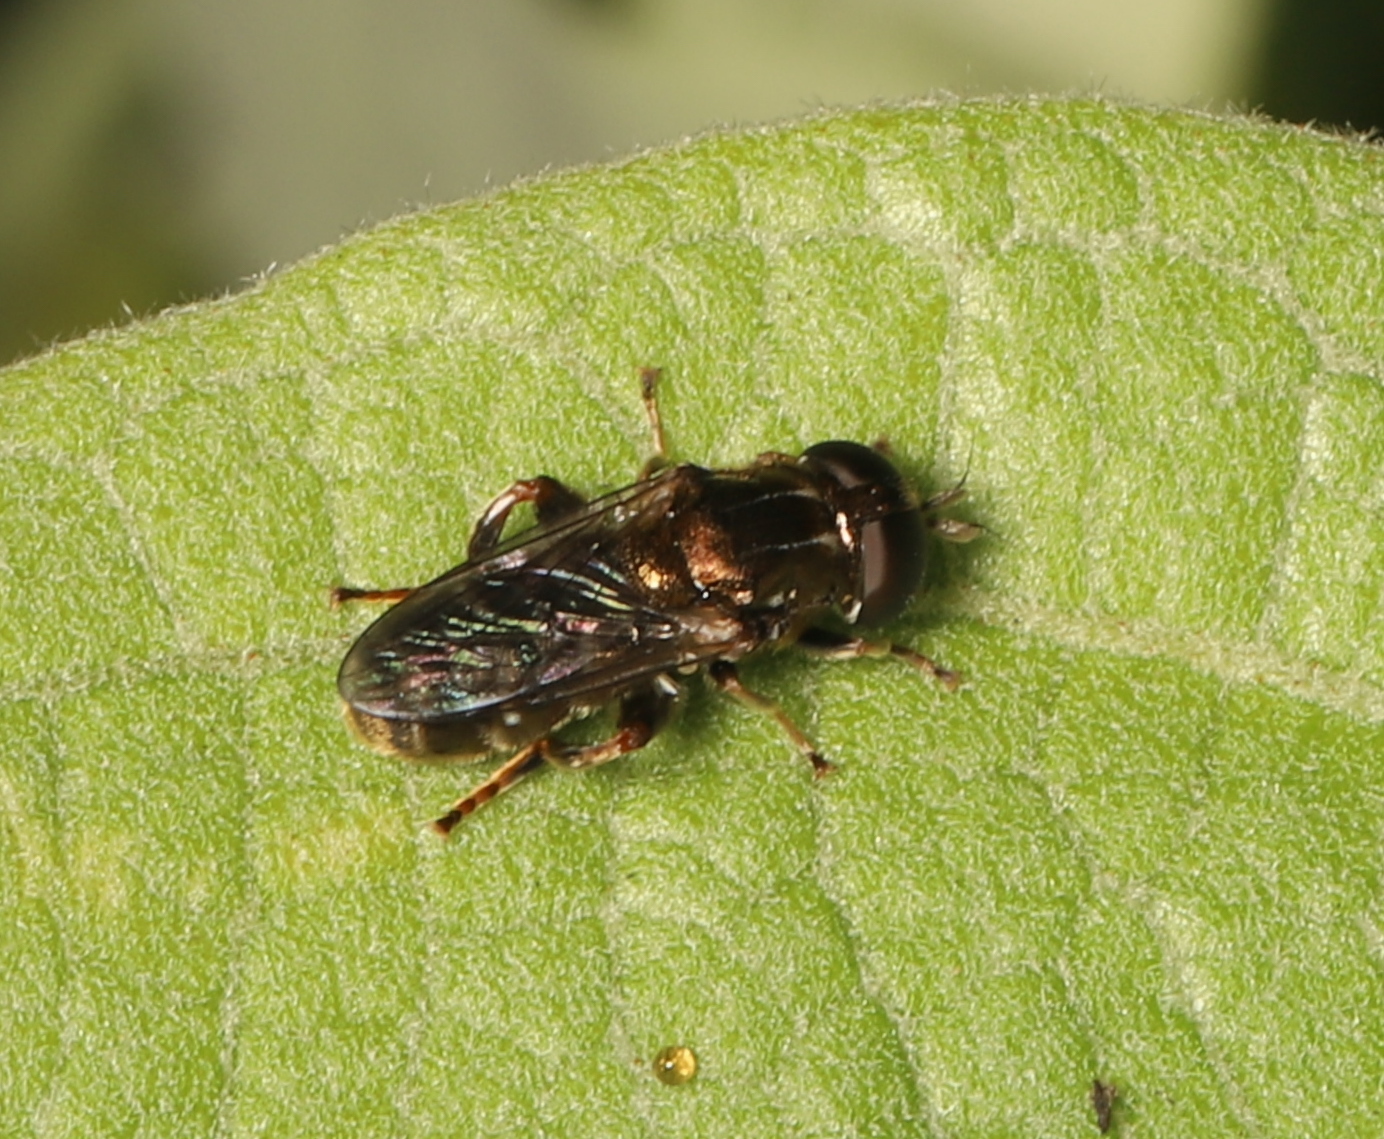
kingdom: Animalia
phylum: Arthropoda
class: Insecta
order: Diptera
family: Syrphidae
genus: Eumerus
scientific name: Eumerus
